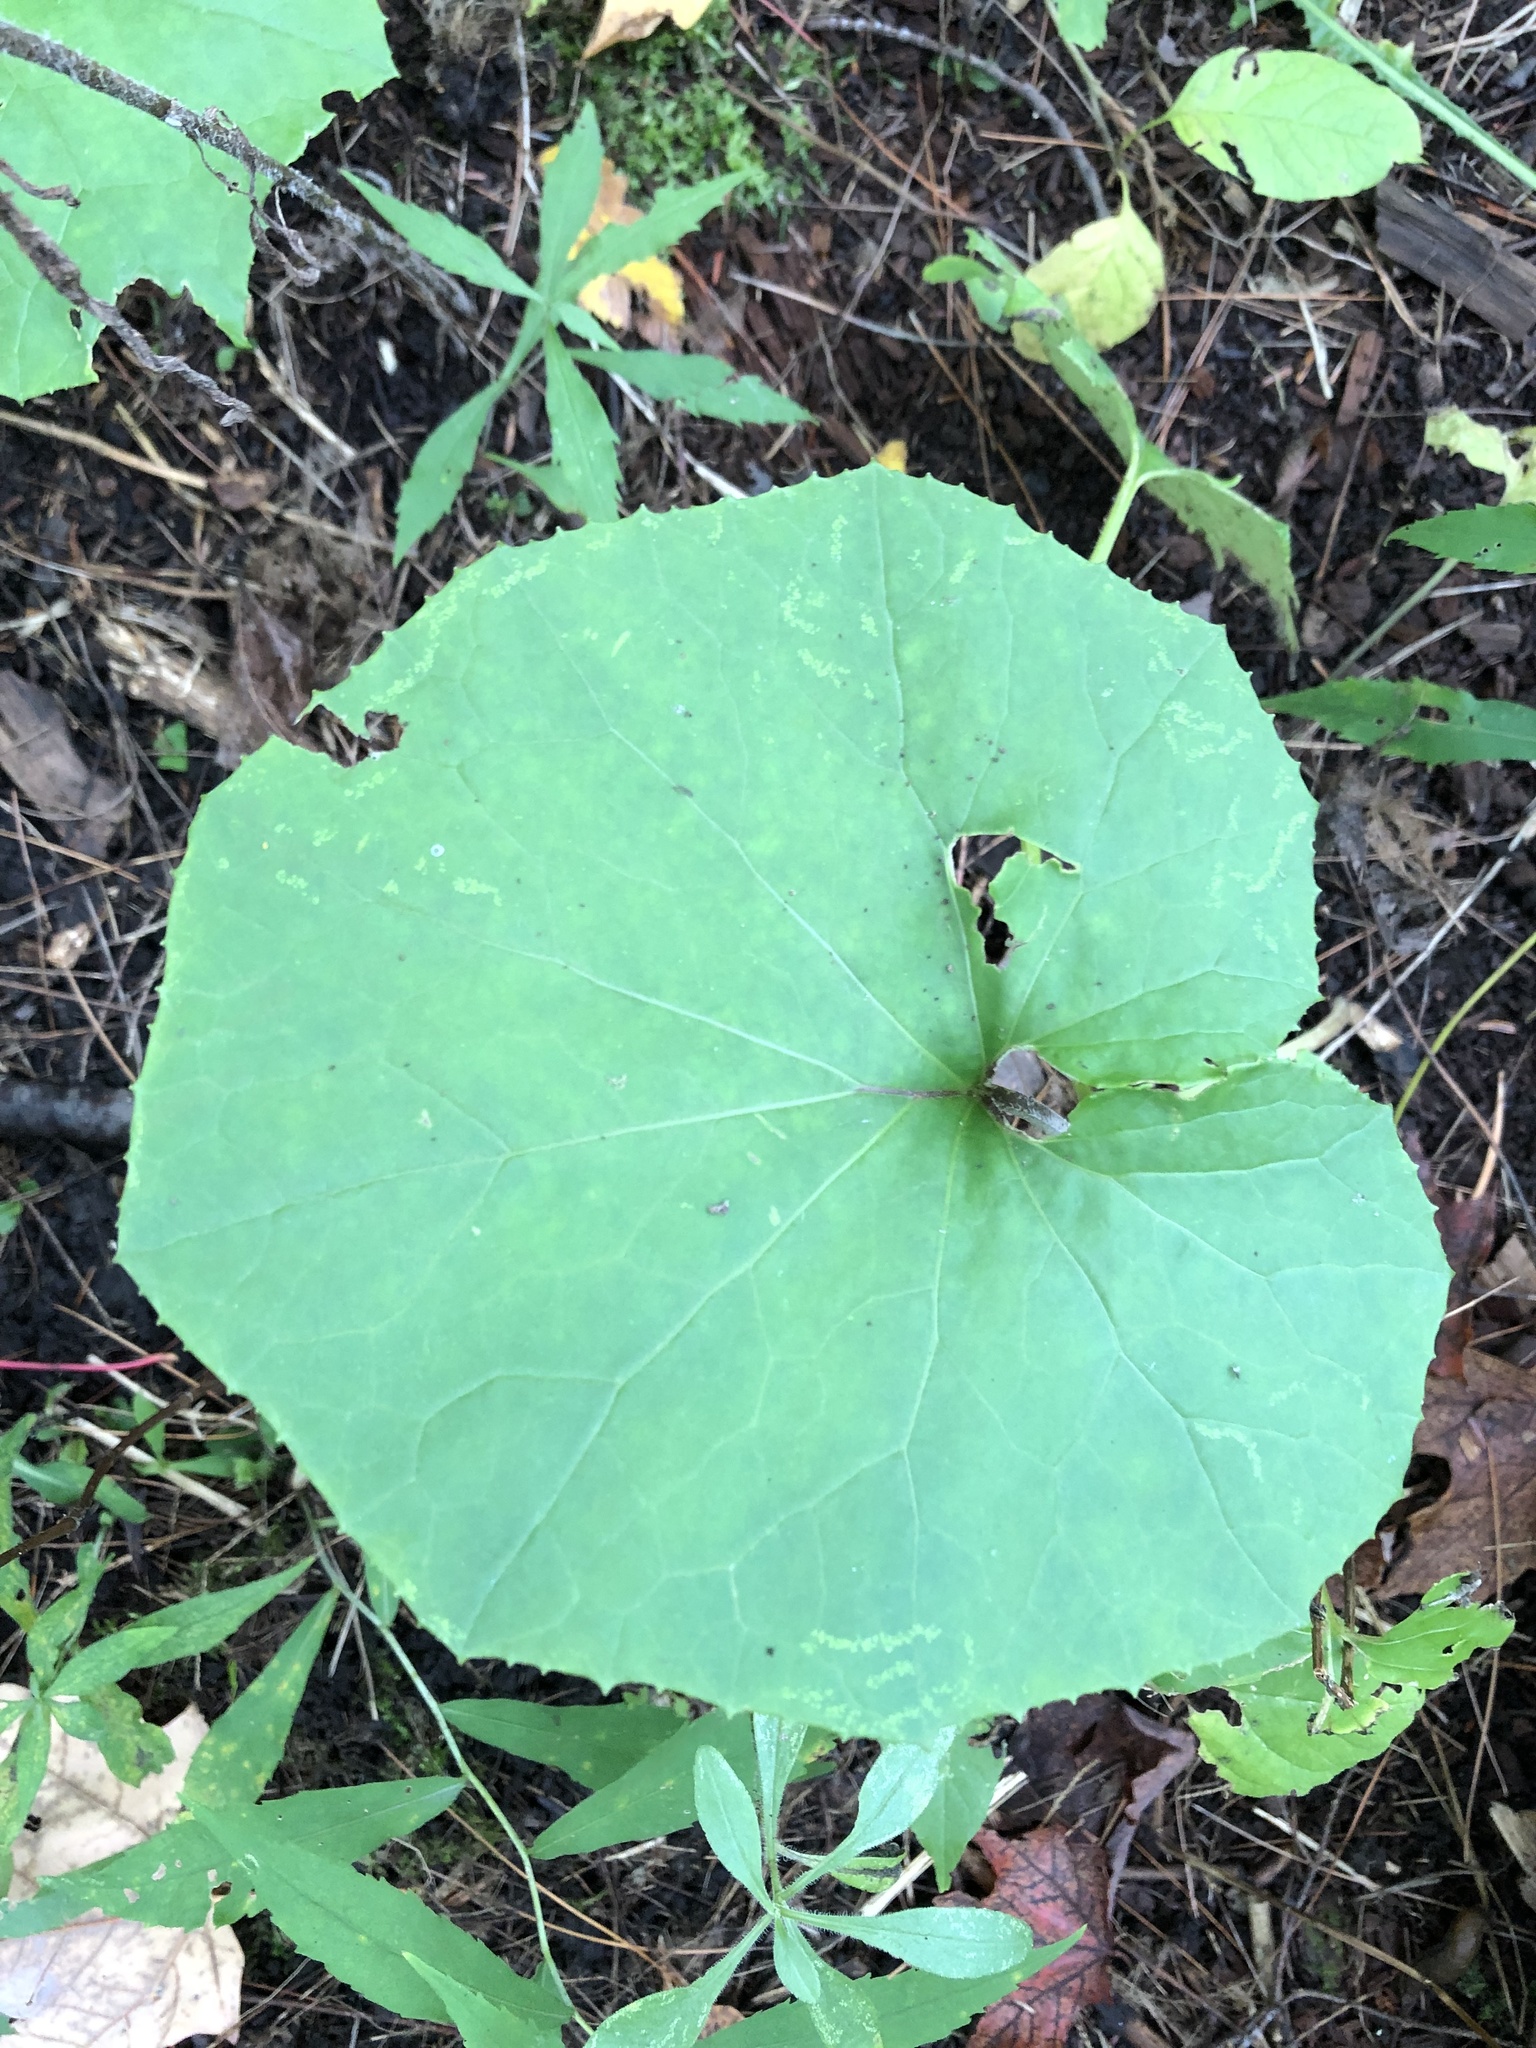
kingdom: Plantae
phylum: Tracheophyta
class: Magnoliopsida
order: Asterales
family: Asteraceae
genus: Tussilago
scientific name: Tussilago farfara
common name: Coltsfoot
